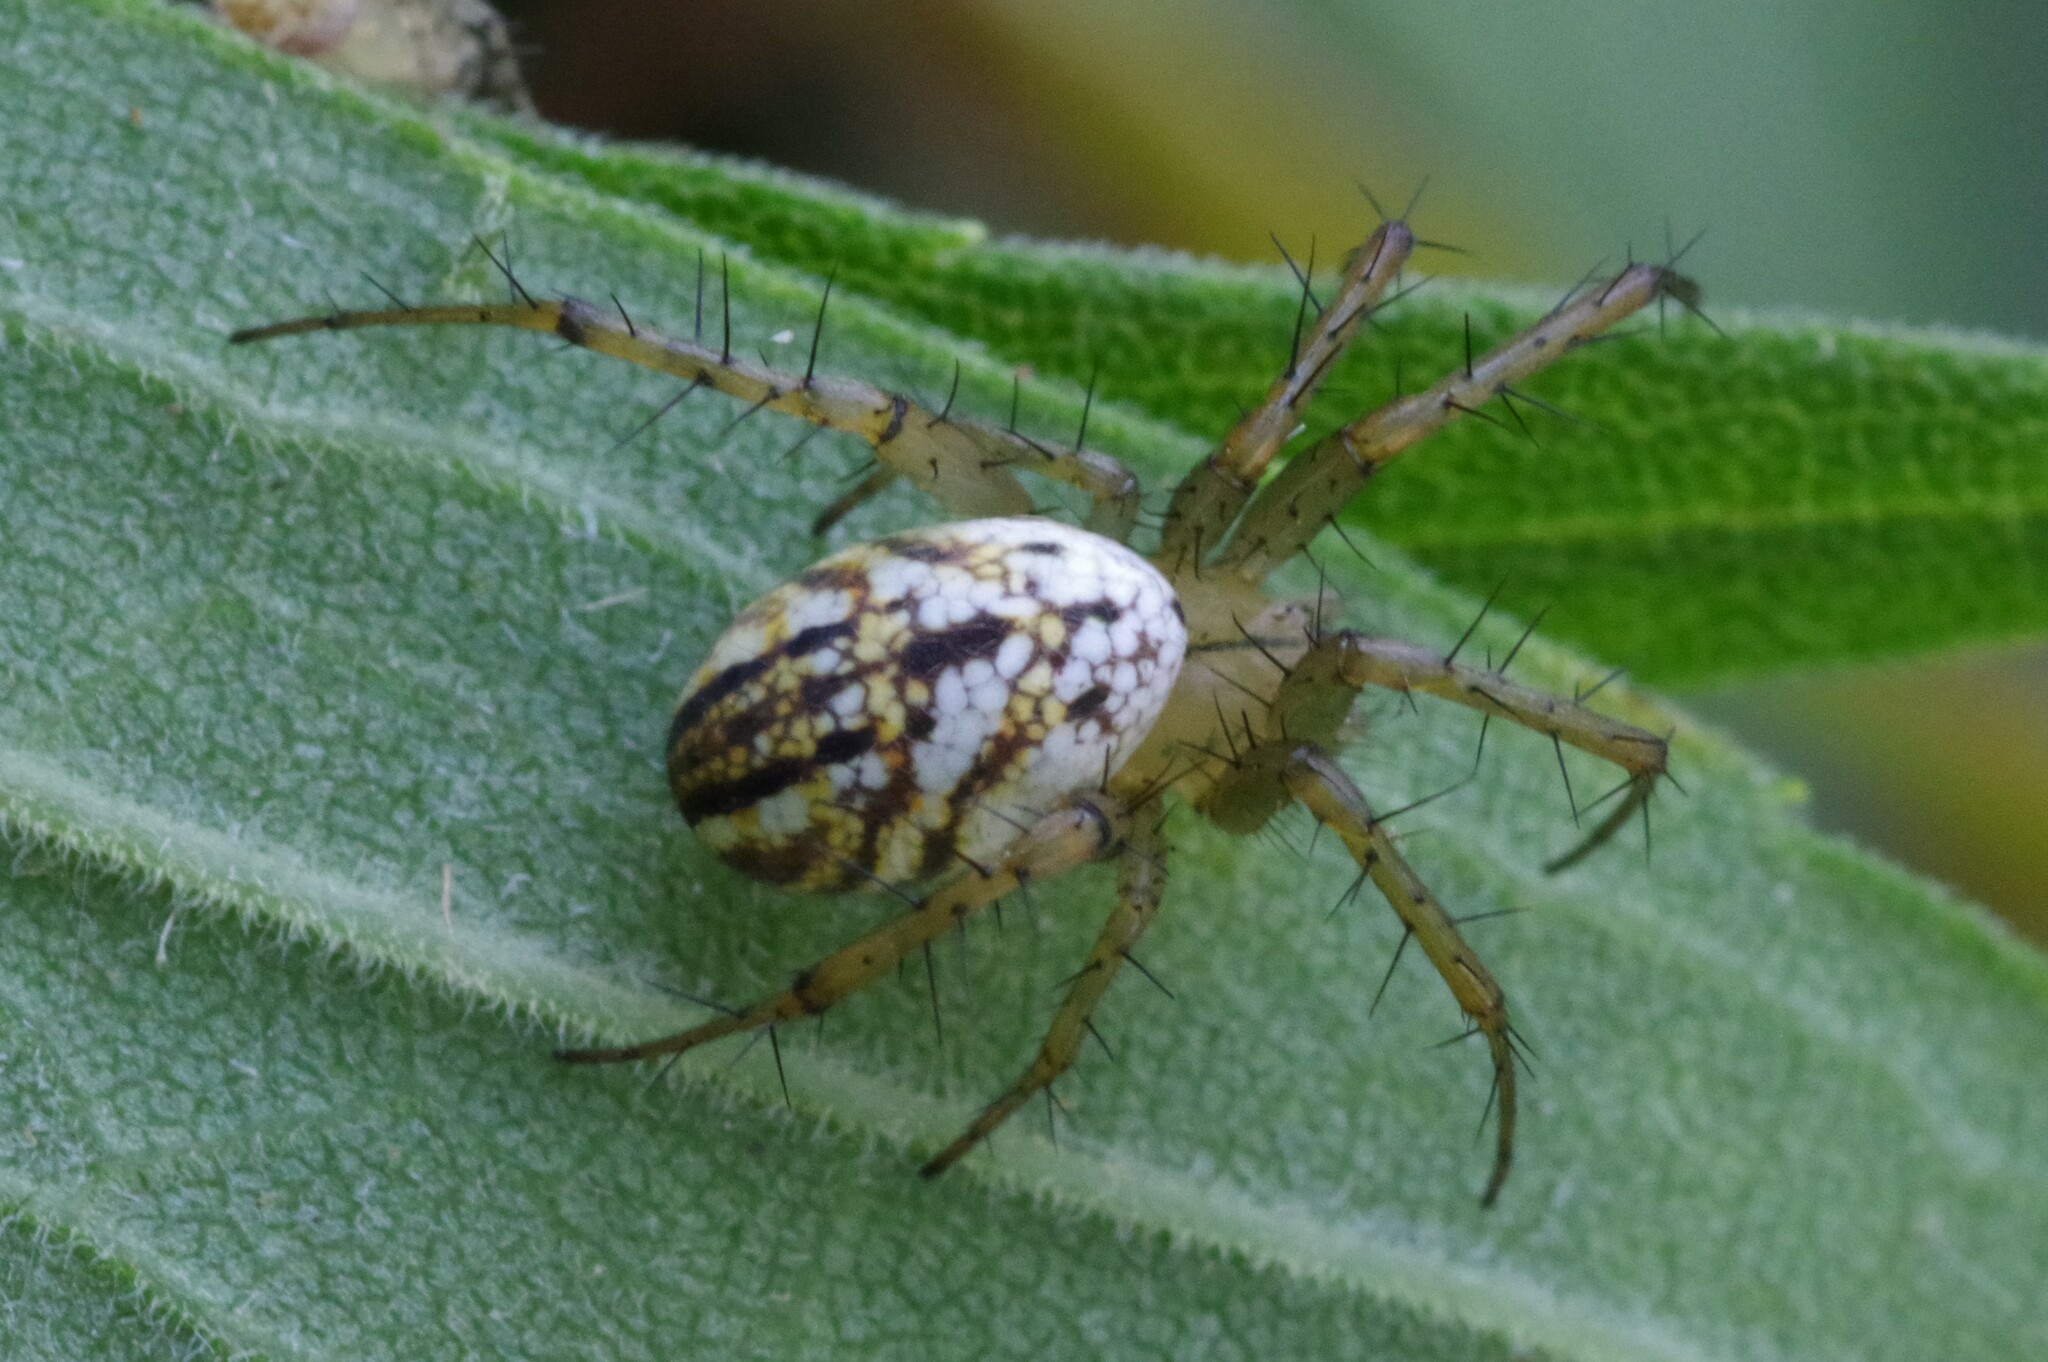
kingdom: Animalia
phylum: Arthropoda
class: Arachnida
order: Araneae
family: Araneidae
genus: Mangora
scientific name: Mangora gibberosa
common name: Lined orbweaver
